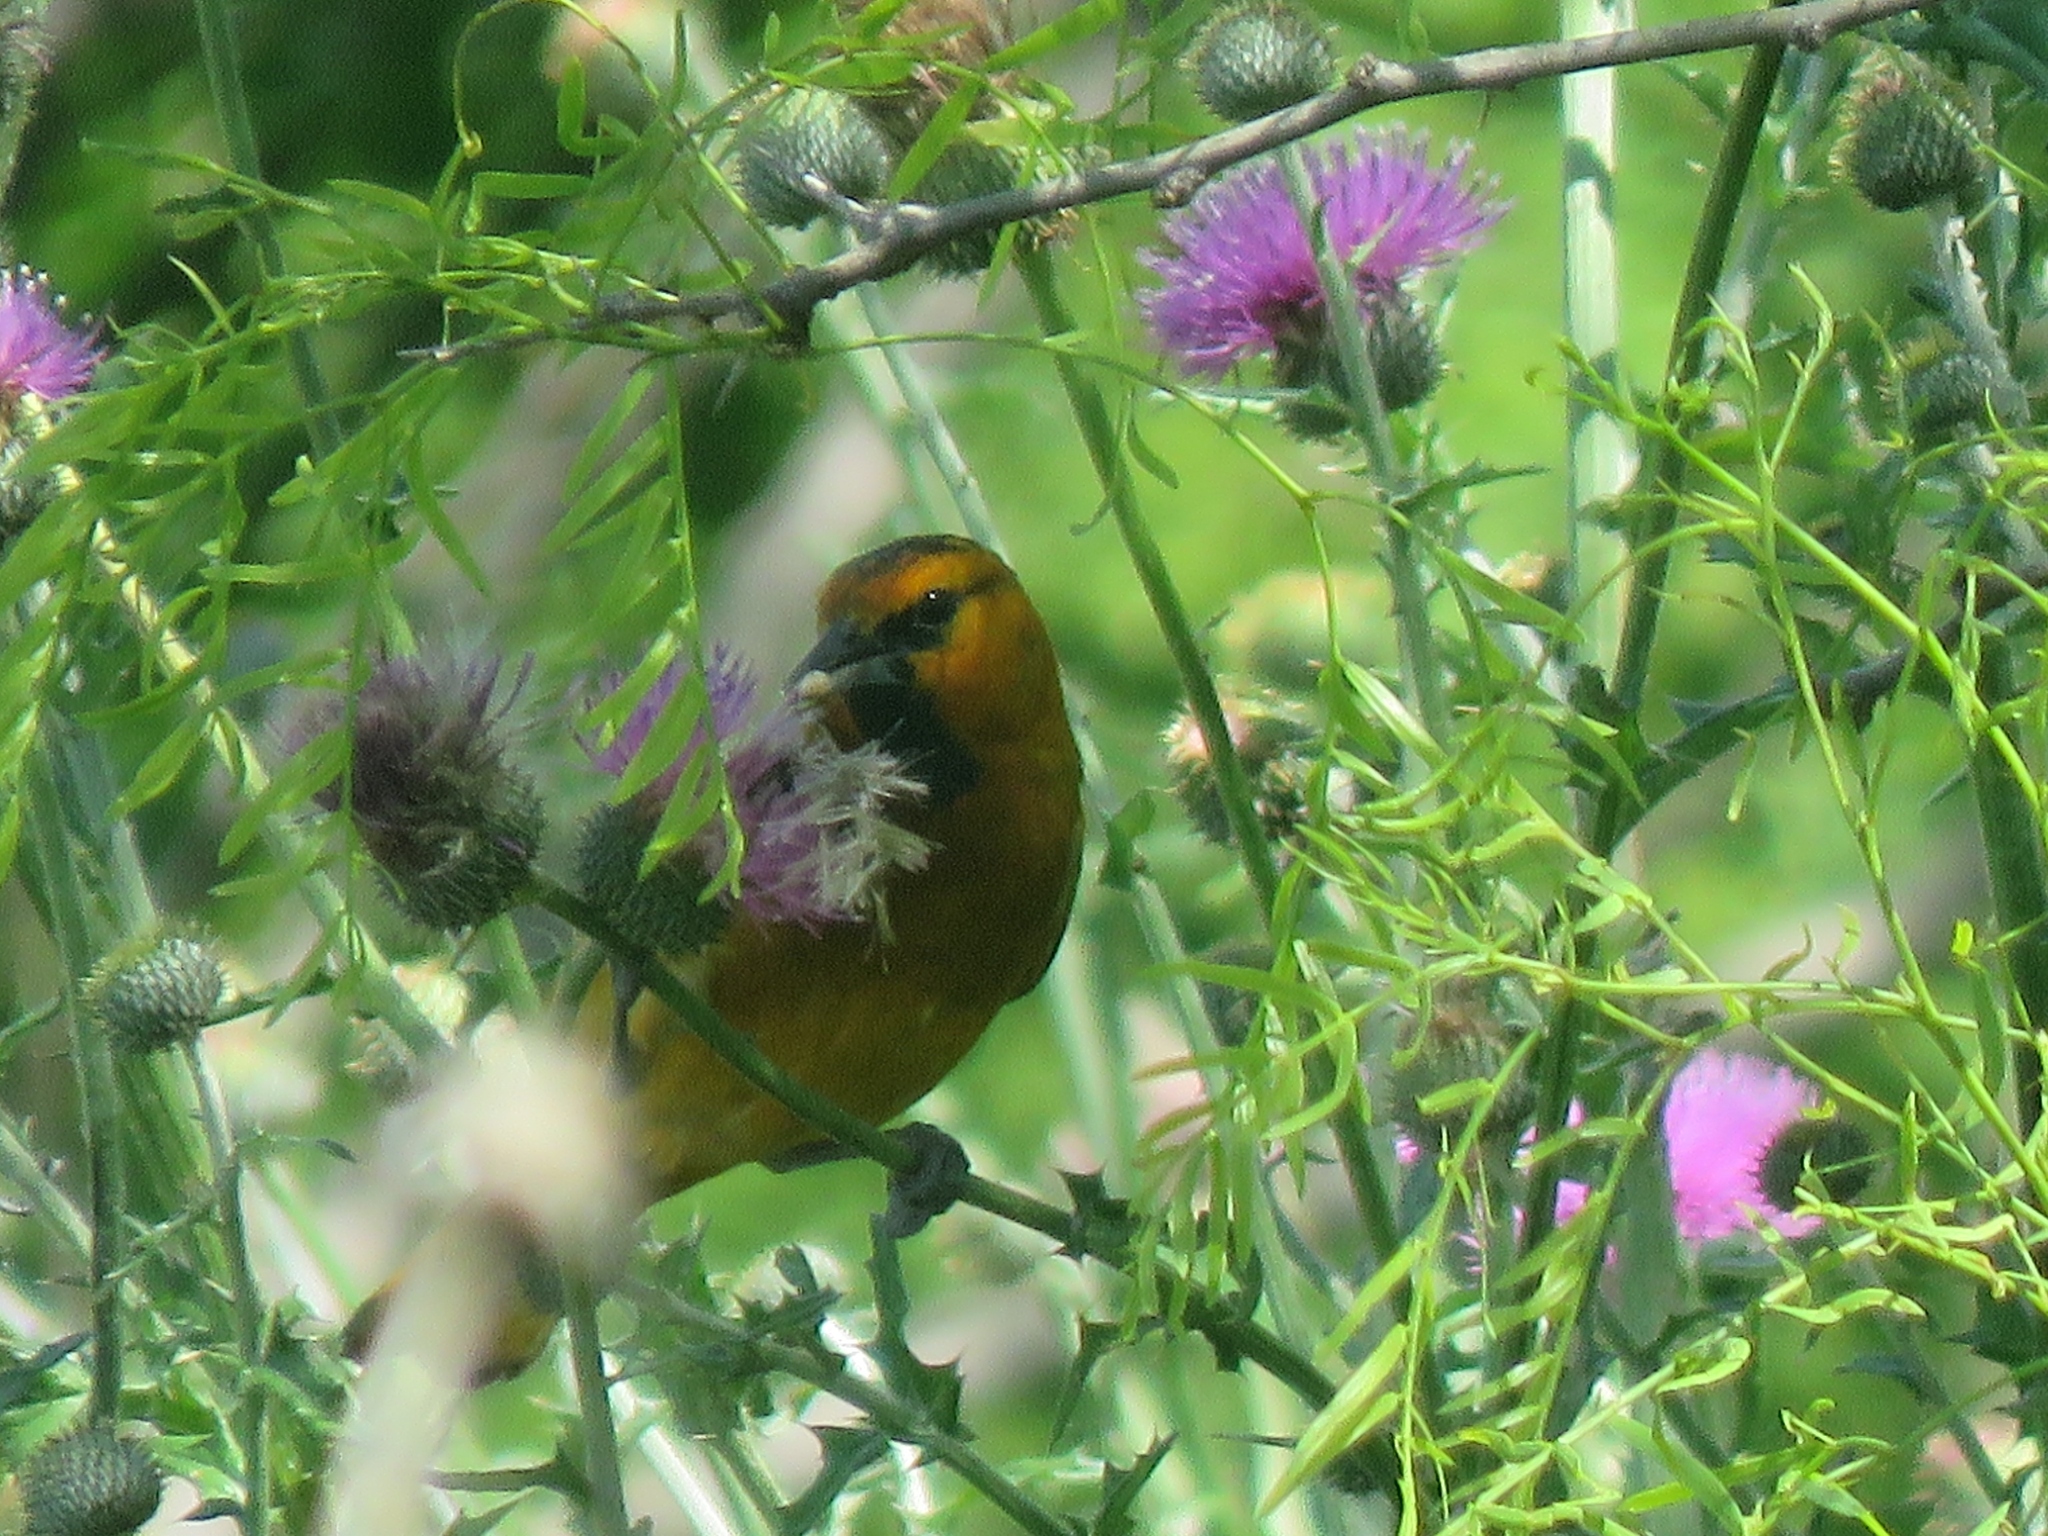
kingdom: Animalia
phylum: Chordata
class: Aves
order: Passeriformes
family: Icteridae
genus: Icterus
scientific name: Icterus bullockii
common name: Bullock's oriole
